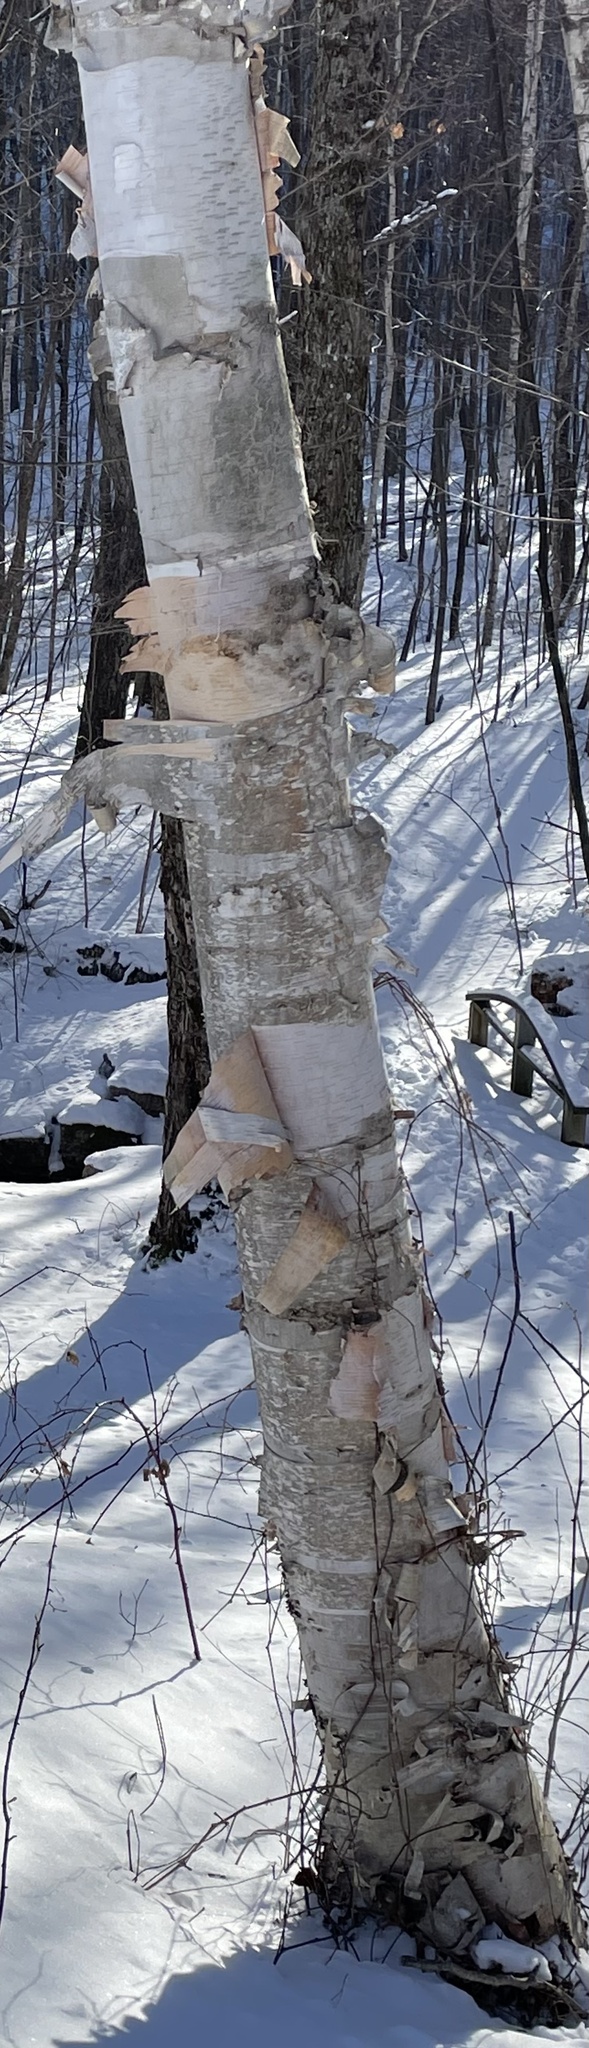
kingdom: Plantae
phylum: Tracheophyta
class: Magnoliopsida
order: Fagales
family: Betulaceae
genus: Betula
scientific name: Betula papyrifera
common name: Paper birch
